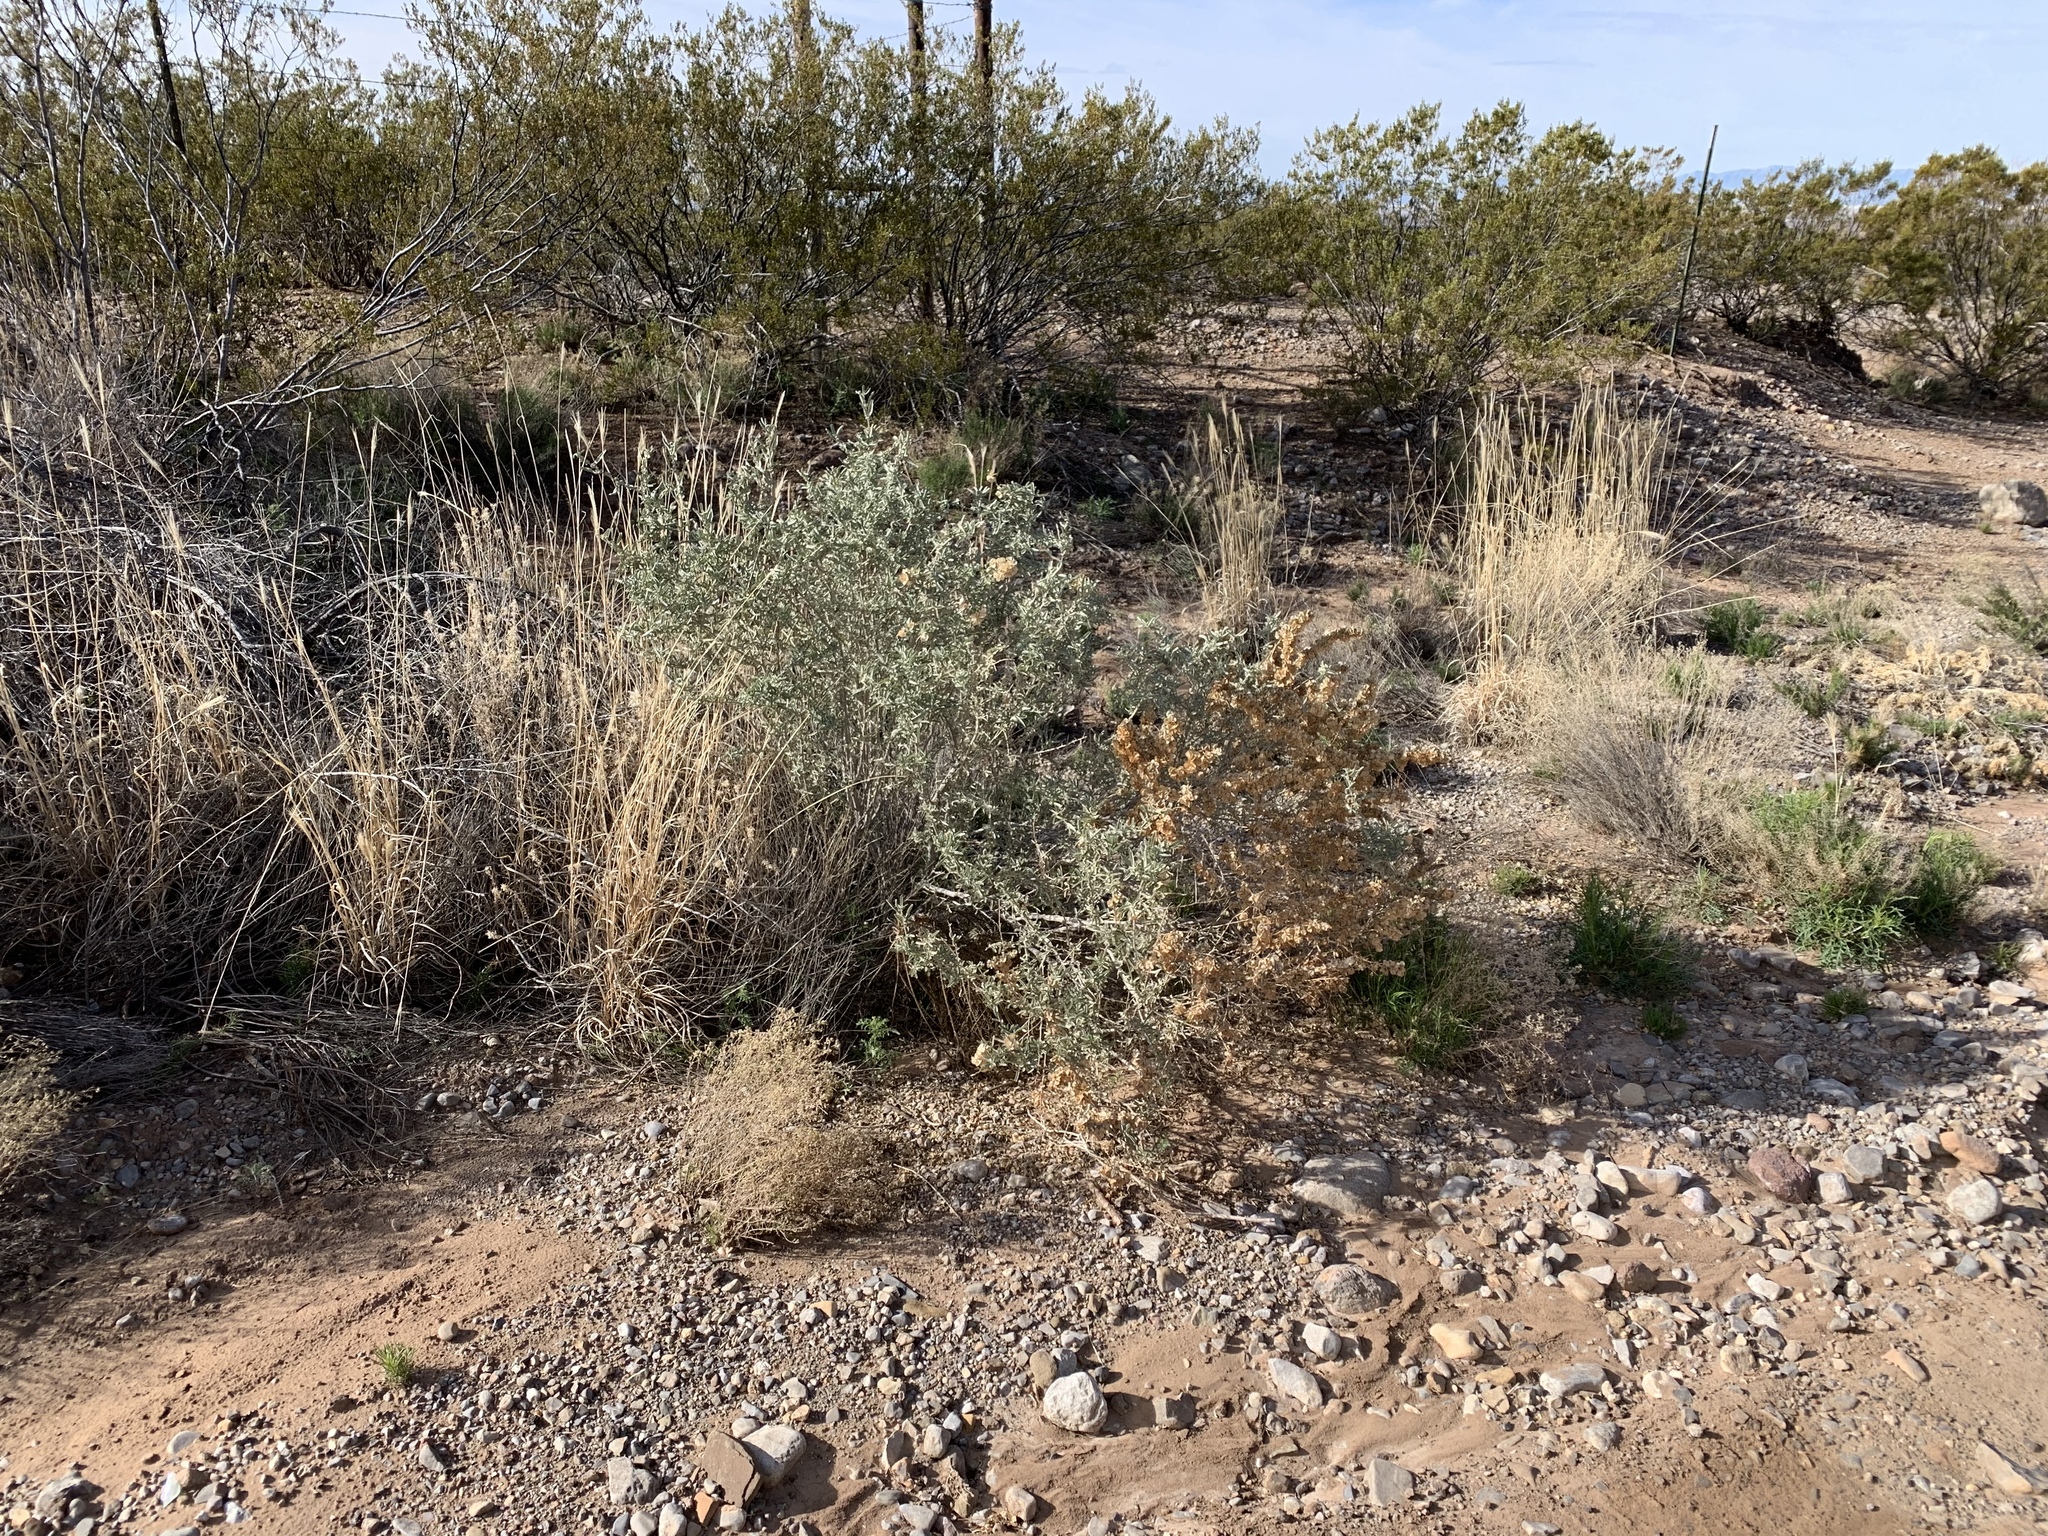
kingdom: Plantae
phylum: Tracheophyta
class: Magnoliopsida
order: Caryophyllales
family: Amaranthaceae
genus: Atriplex
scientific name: Atriplex canescens
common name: Four-wing saltbush
